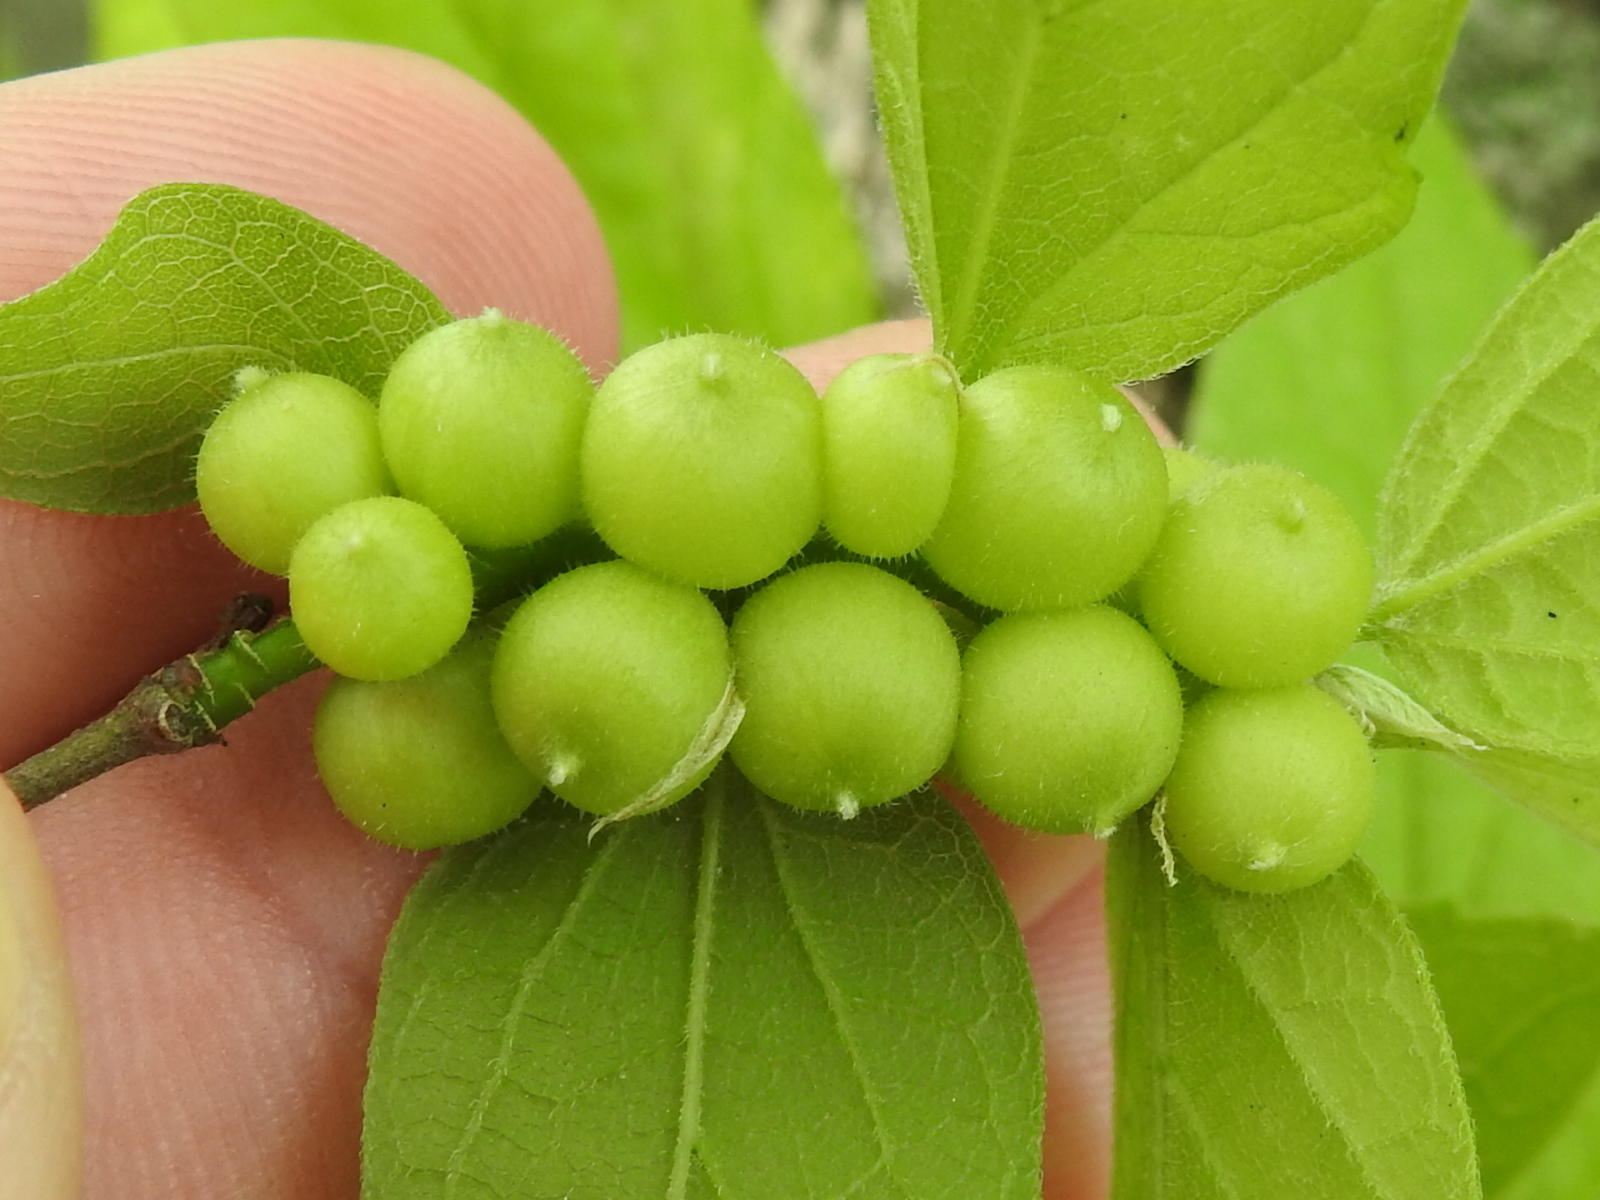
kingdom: Animalia
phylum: Arthropoda
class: Insecta
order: Diptera
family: Cecidomyiidae
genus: Celticecis
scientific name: Celticecis oviformis
